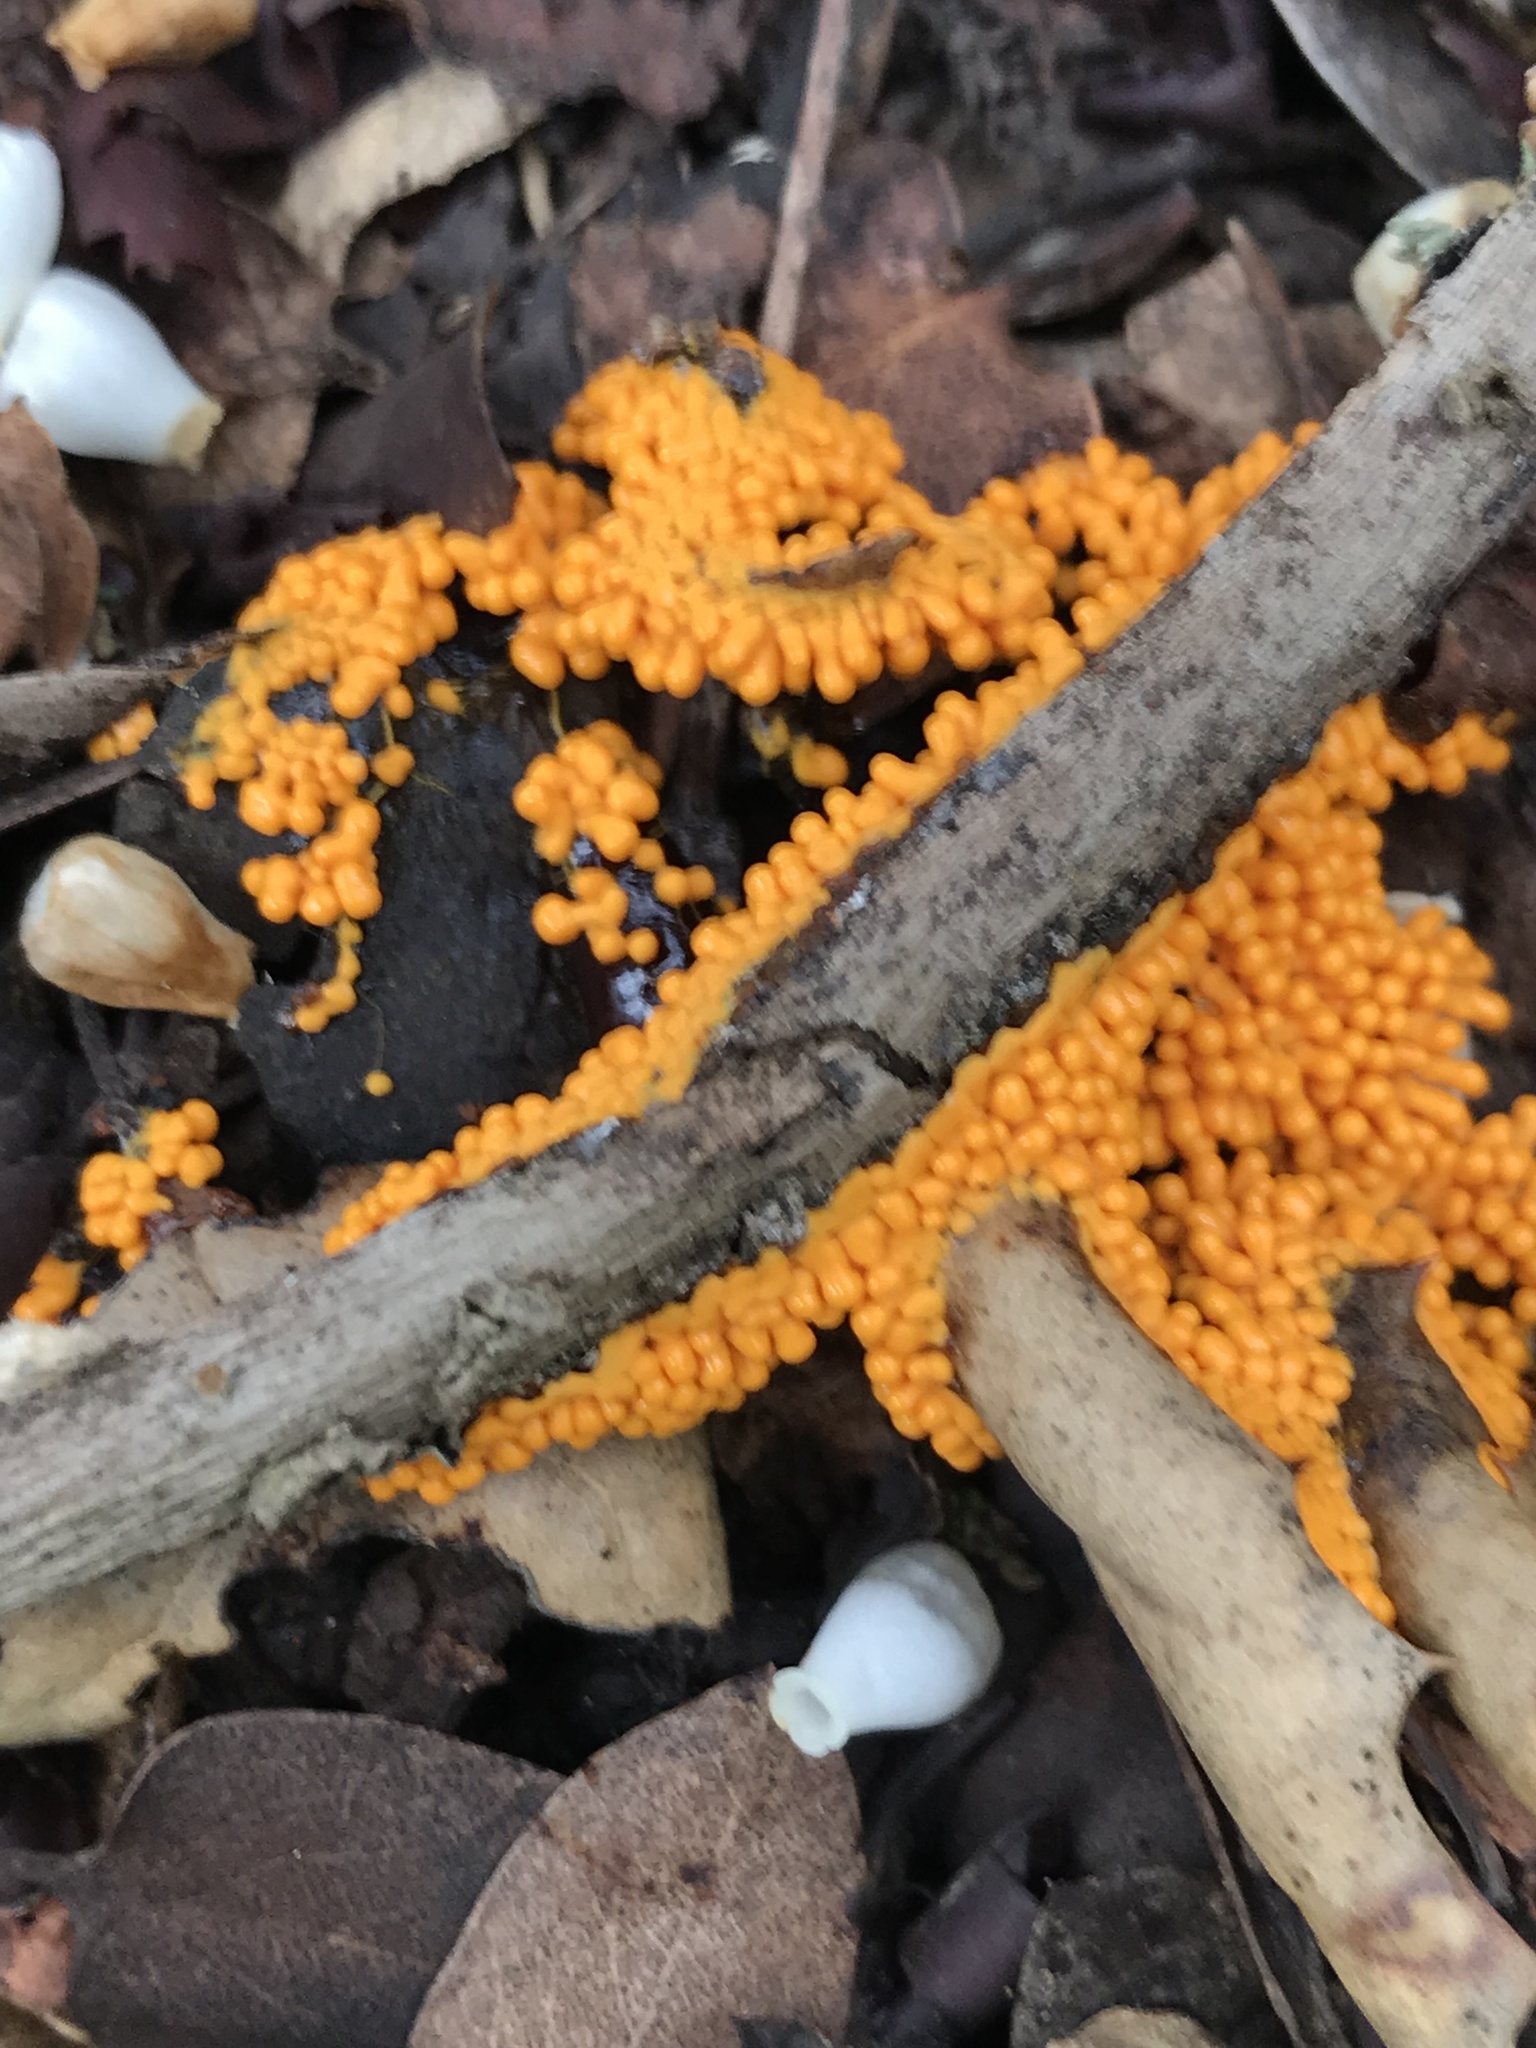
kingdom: Protozoa
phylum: Mycetozoa
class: Myxomycetes
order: Physarales
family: Physaraceae
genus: Leocarpus
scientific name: Leocarpus fragilis
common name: Insect-egg slime
